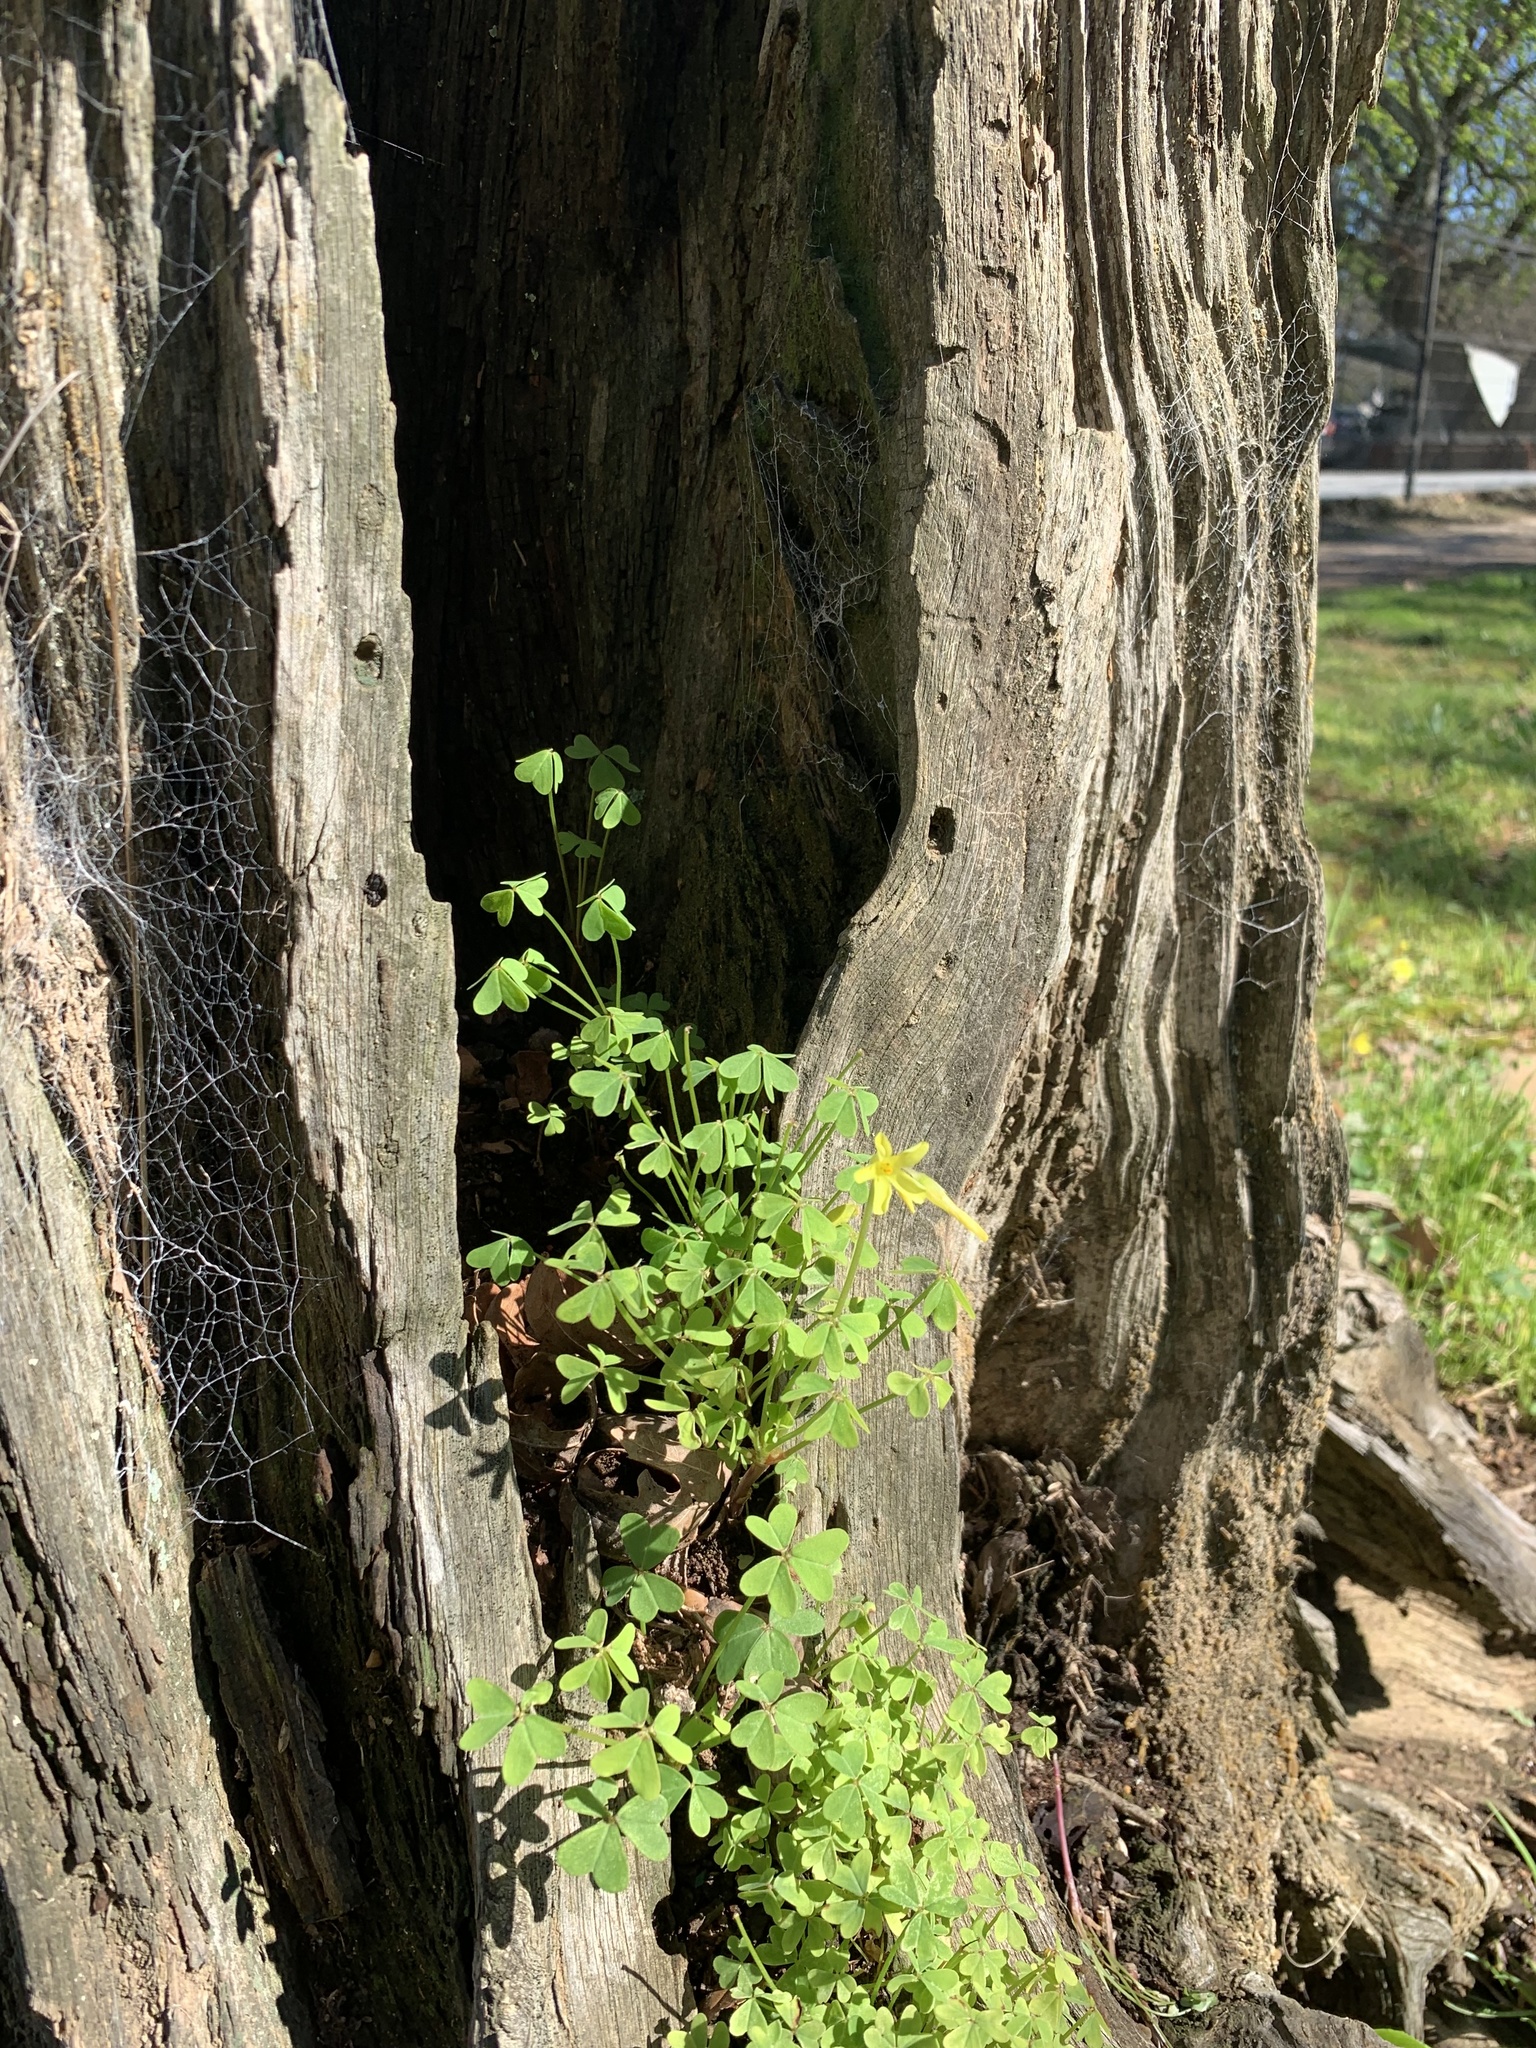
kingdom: Plantae
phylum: Tracheophyta
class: Magnoliopsida
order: Oxalidales
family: Oxalidaceae
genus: Oxalis
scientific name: Oxalis pes-caprae
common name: Bermuda-buttercup
